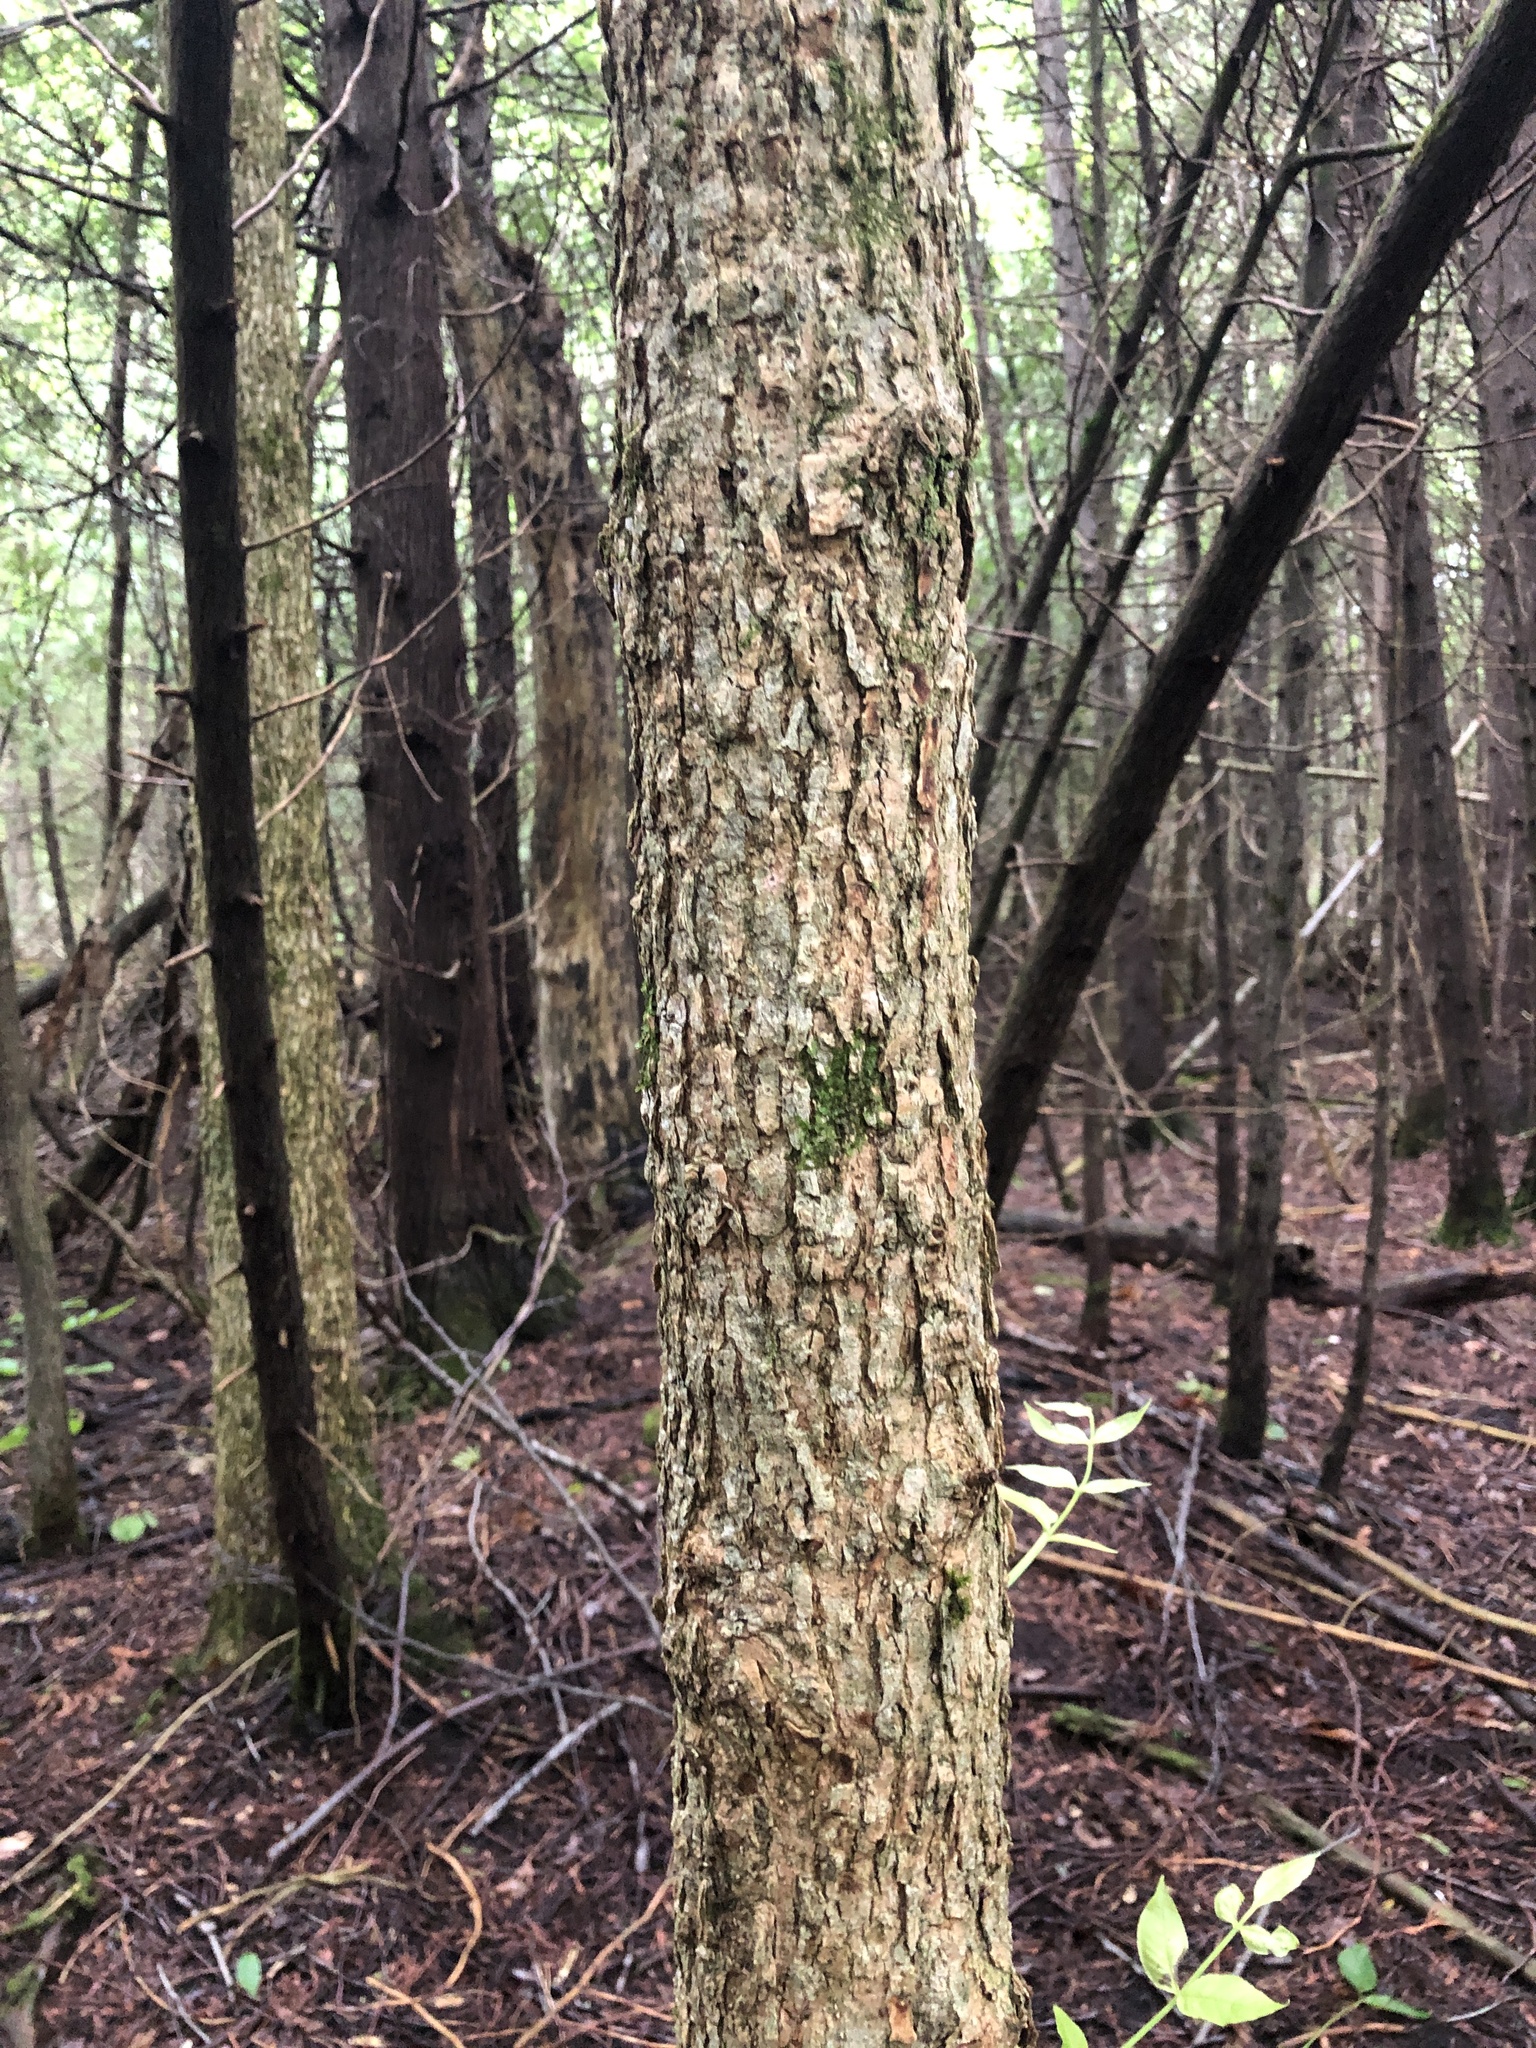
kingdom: Plantae
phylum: Tracheophyta
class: Magnoliopsida
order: Lamiales
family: Oleaceae
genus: Fraxinus
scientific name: Fraxinus nigra
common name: Black ash
